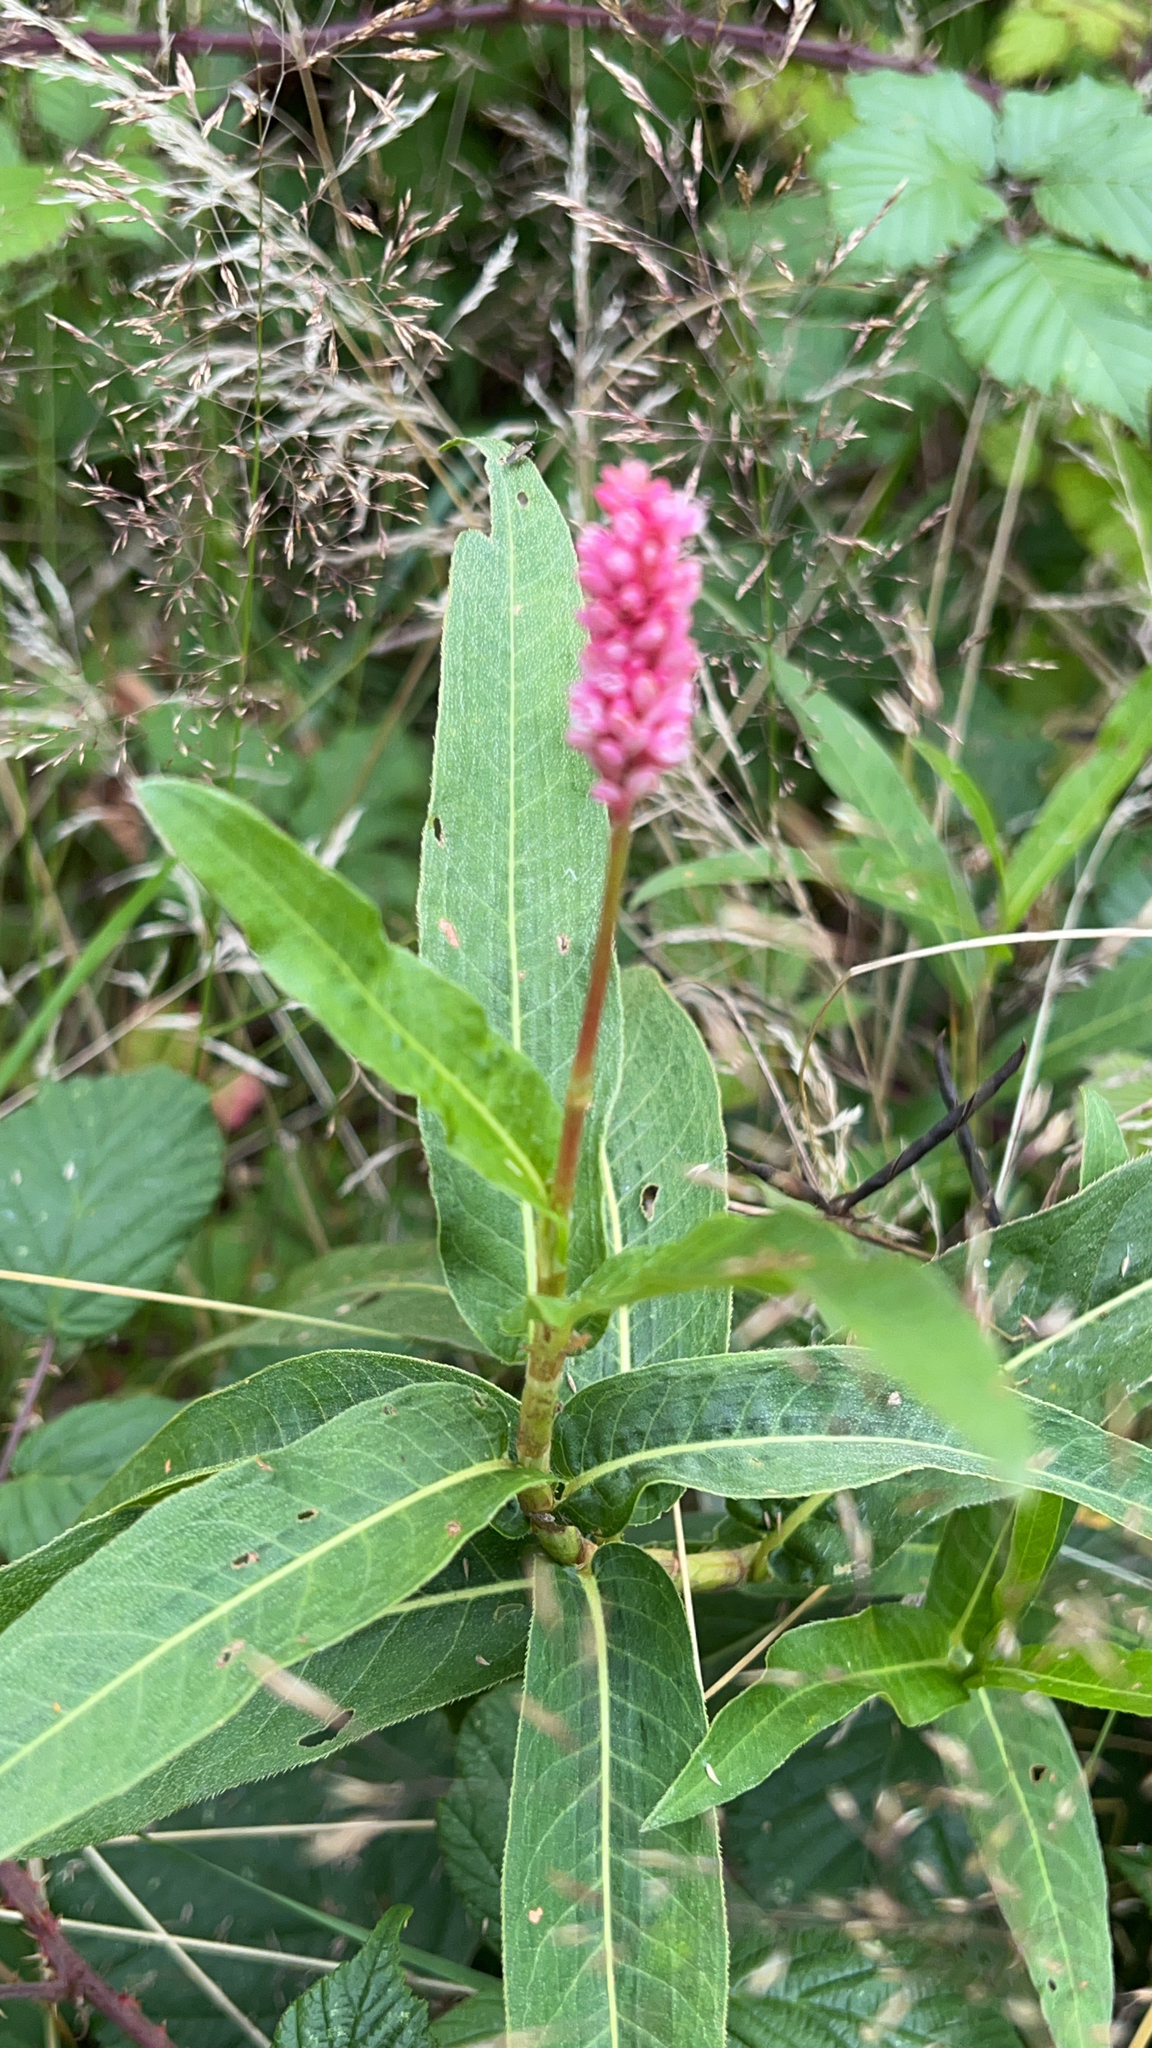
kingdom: Plantae
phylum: Tracheophyta
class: Magnoliopsida
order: Caryophyllales
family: Polygonaceae
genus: Persicaria
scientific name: Persicaria amphibia
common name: Amphibious bistort
